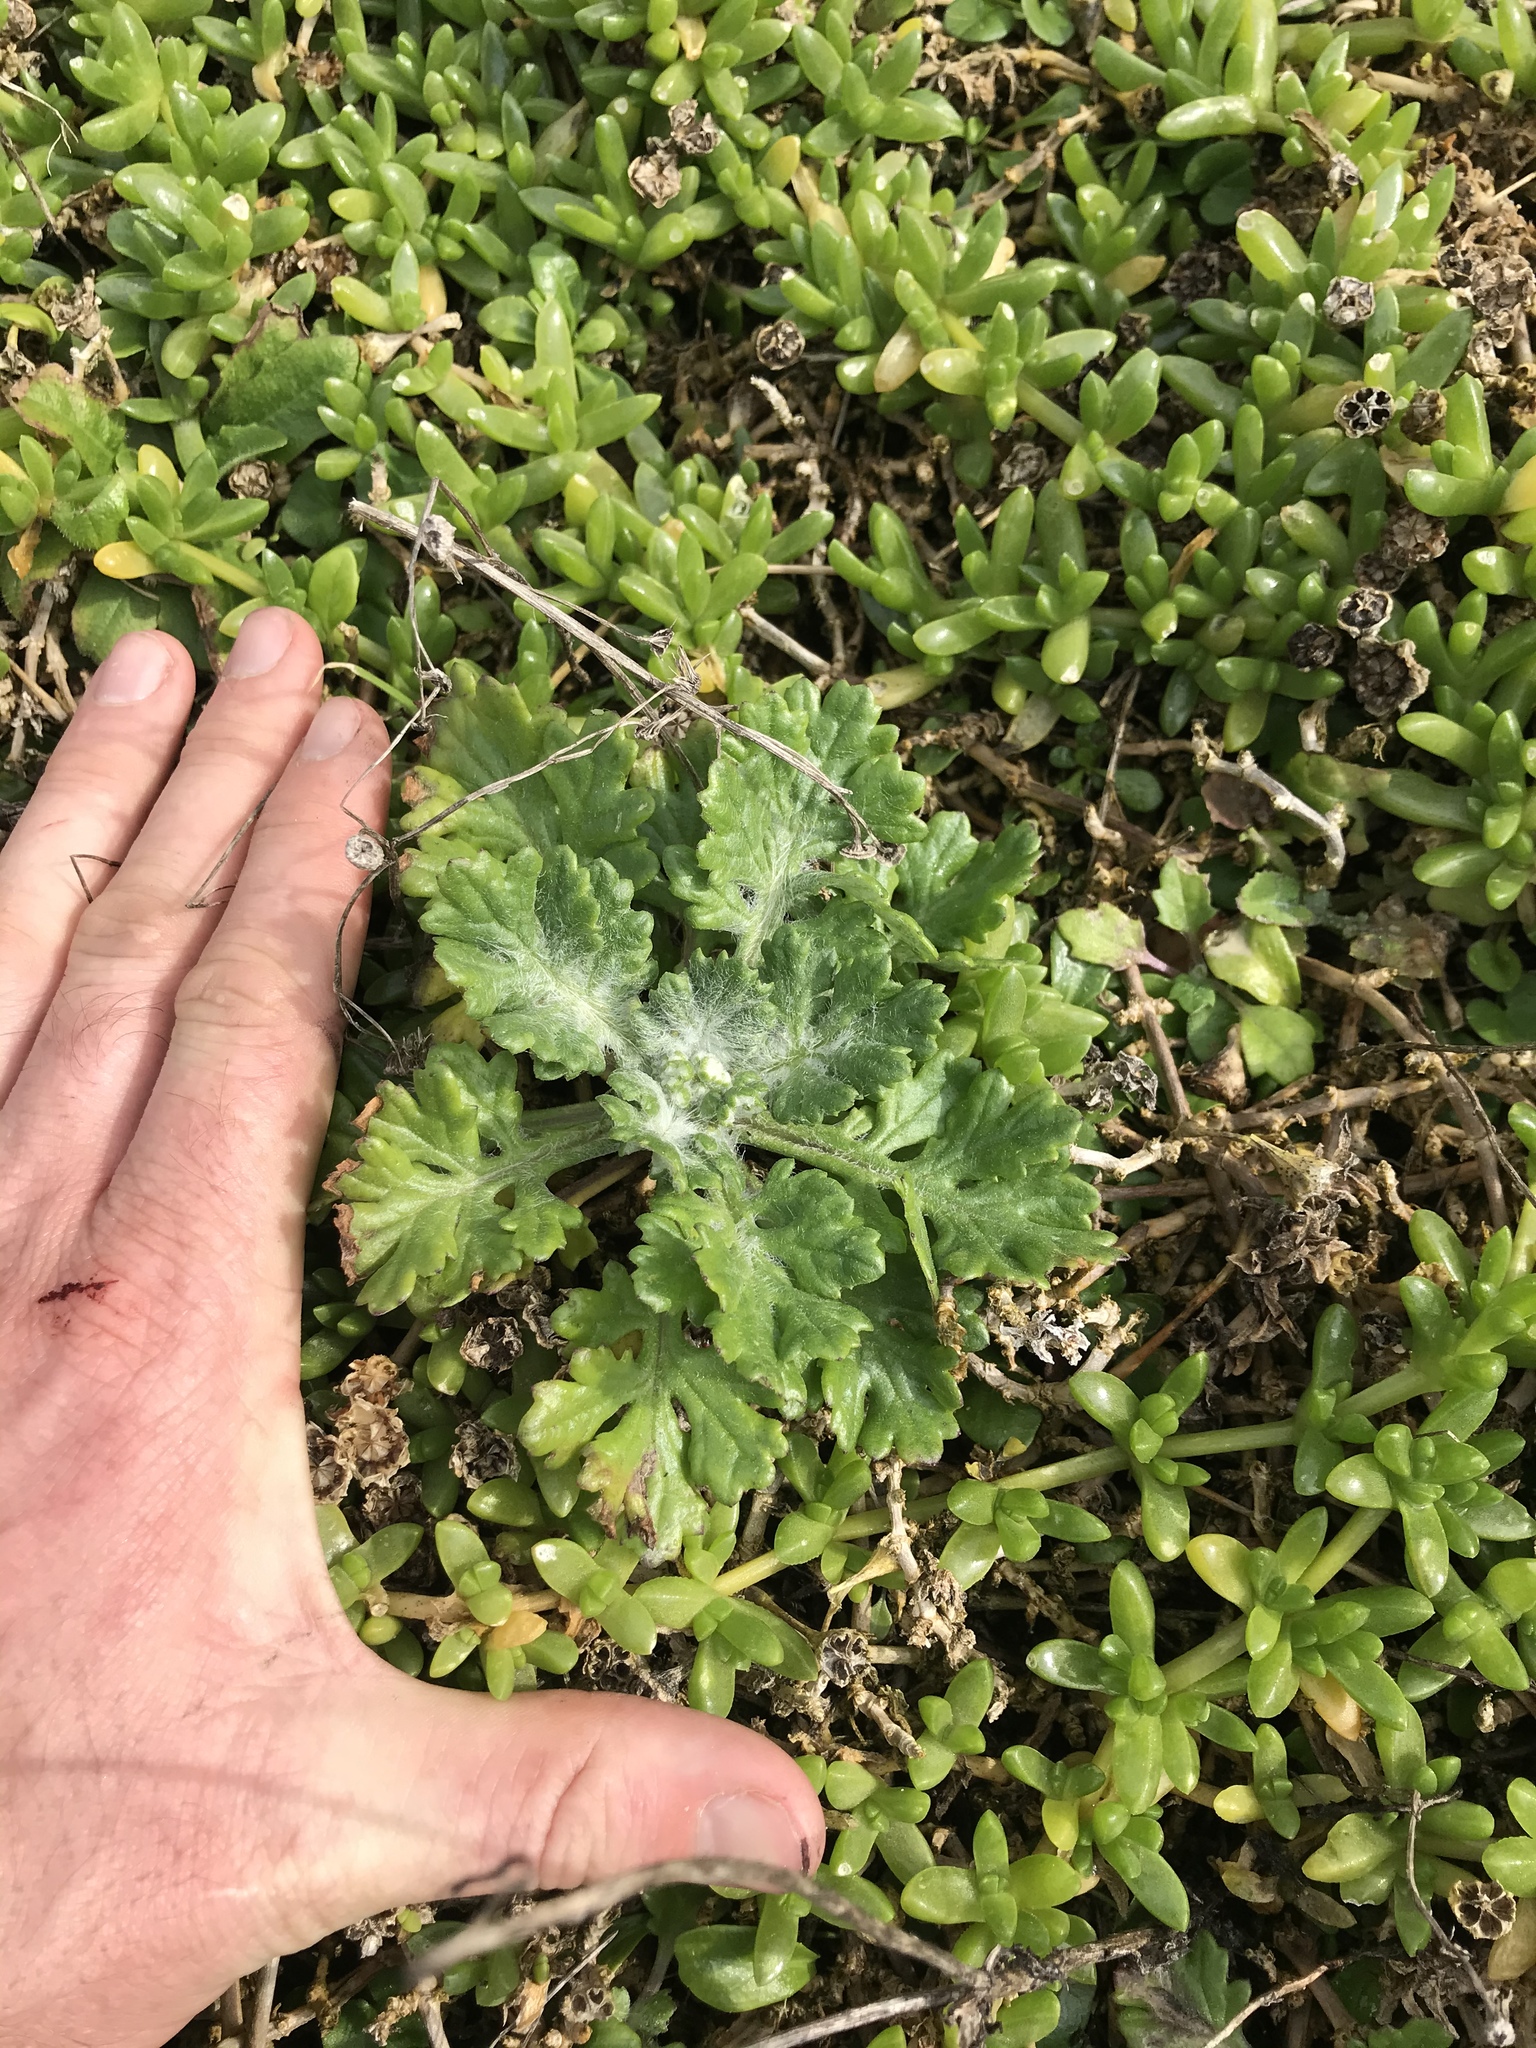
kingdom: Plantae
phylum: Tracheophyta
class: Magnoliopsida
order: Asterales
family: Asteraceae
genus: Senecio
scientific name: Senecio radiolatus
